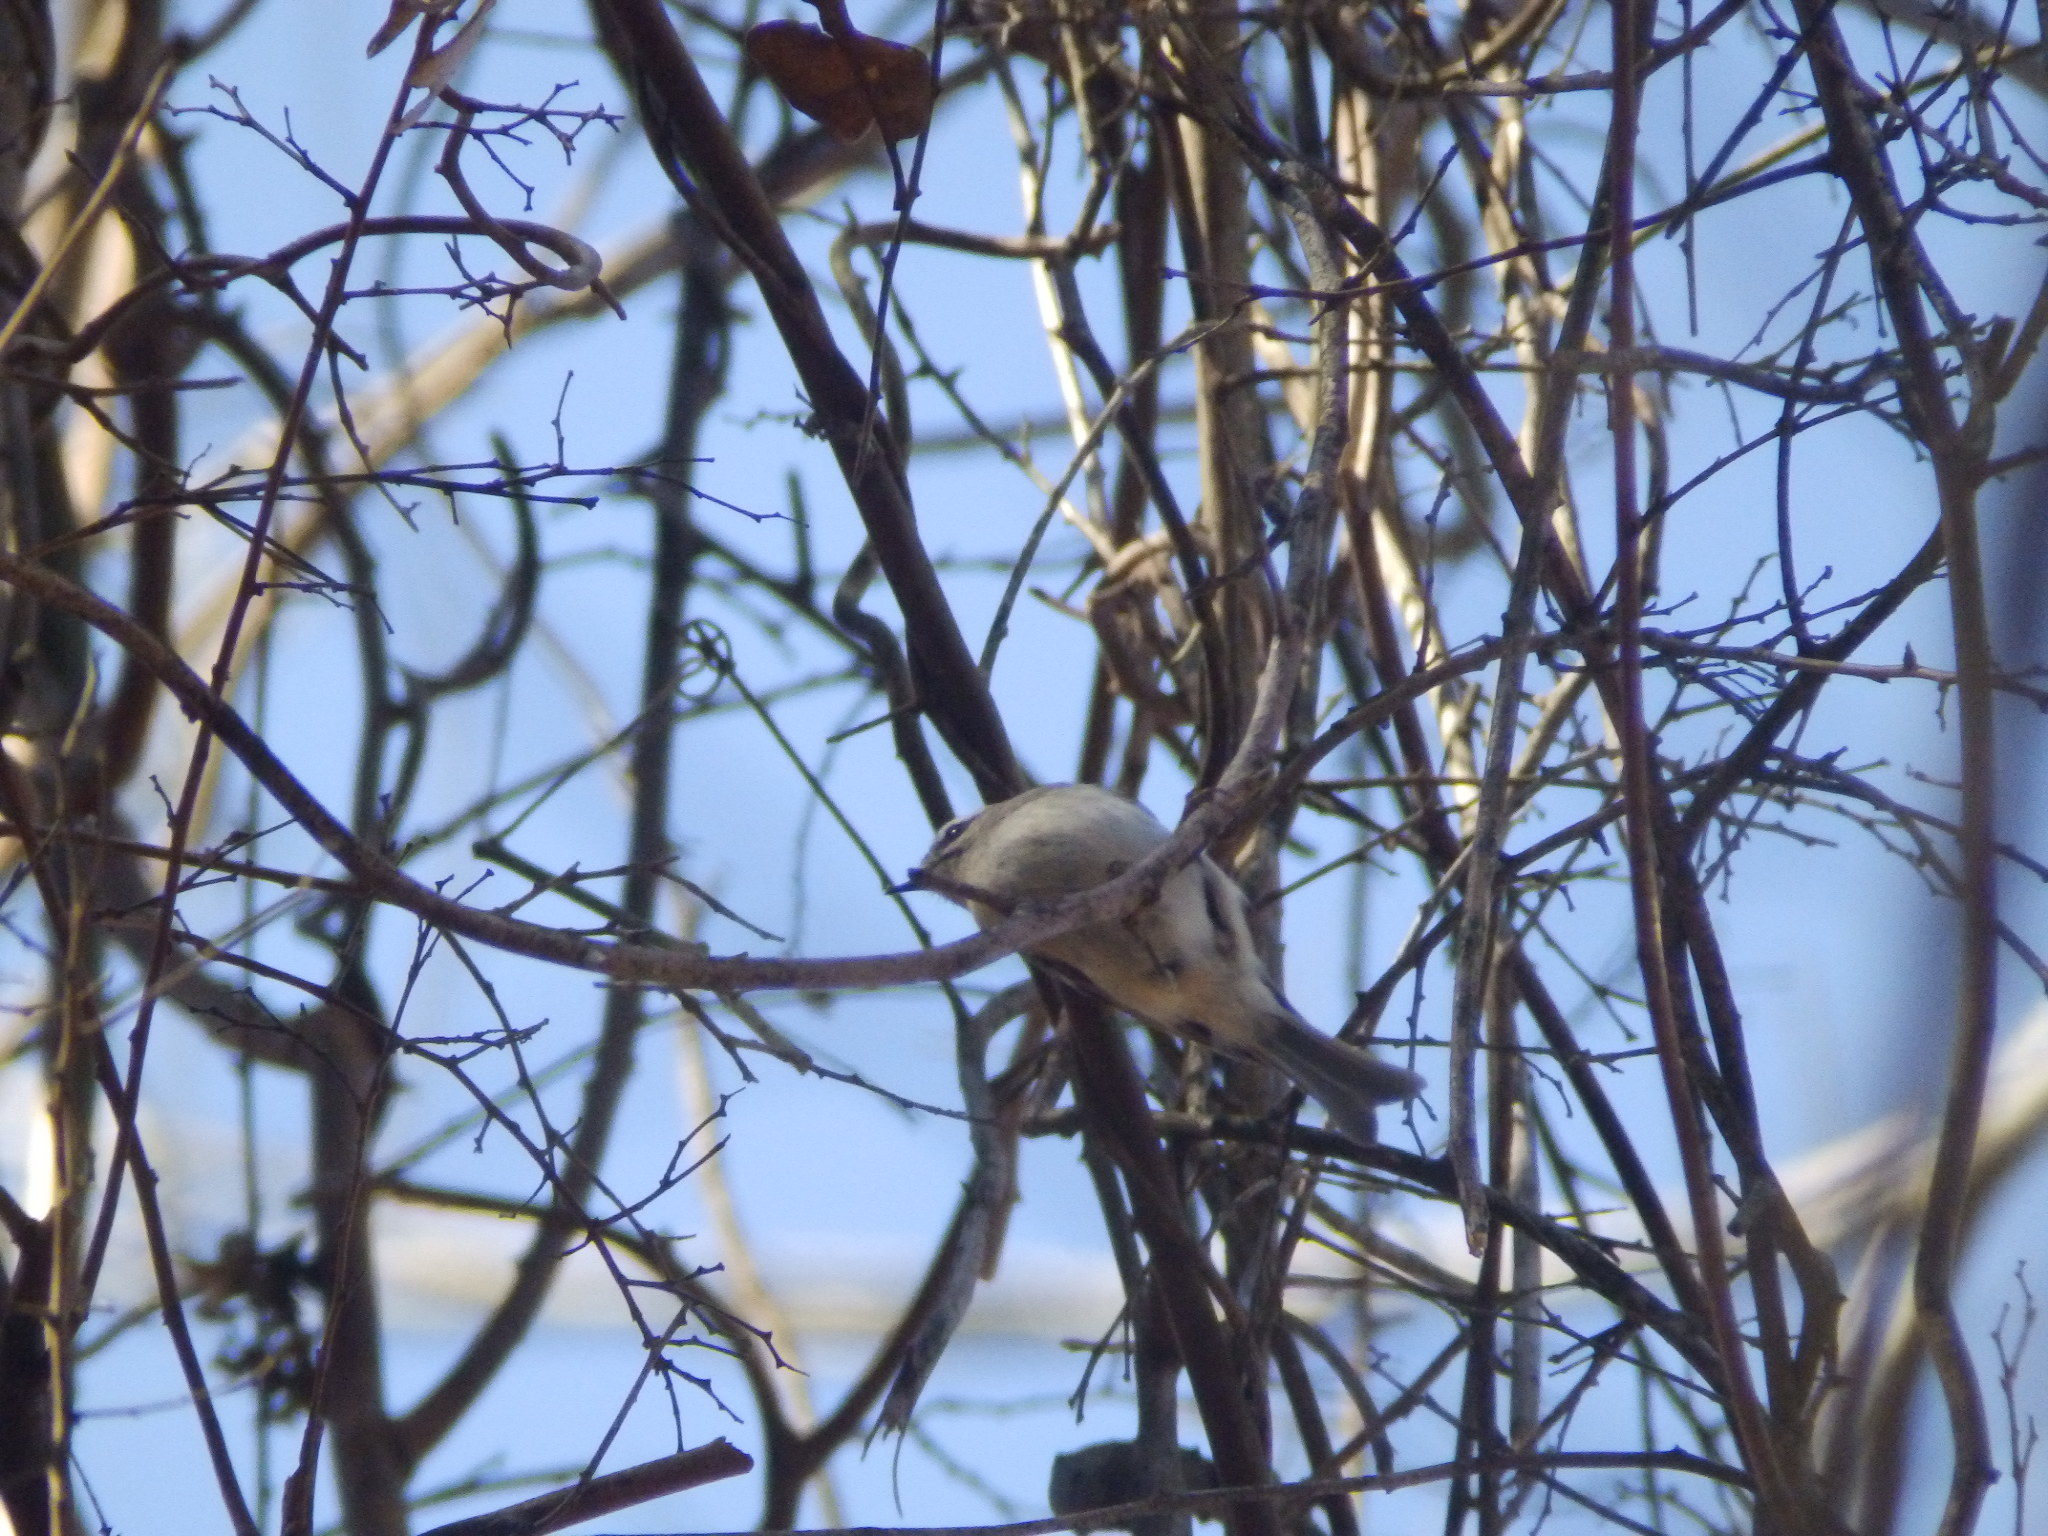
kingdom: Animalia
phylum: Chordata
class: Aves
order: Passeriformes
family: Regulidae
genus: Regulus
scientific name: Regulus satrapa
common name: Golden-crowned kinglet
